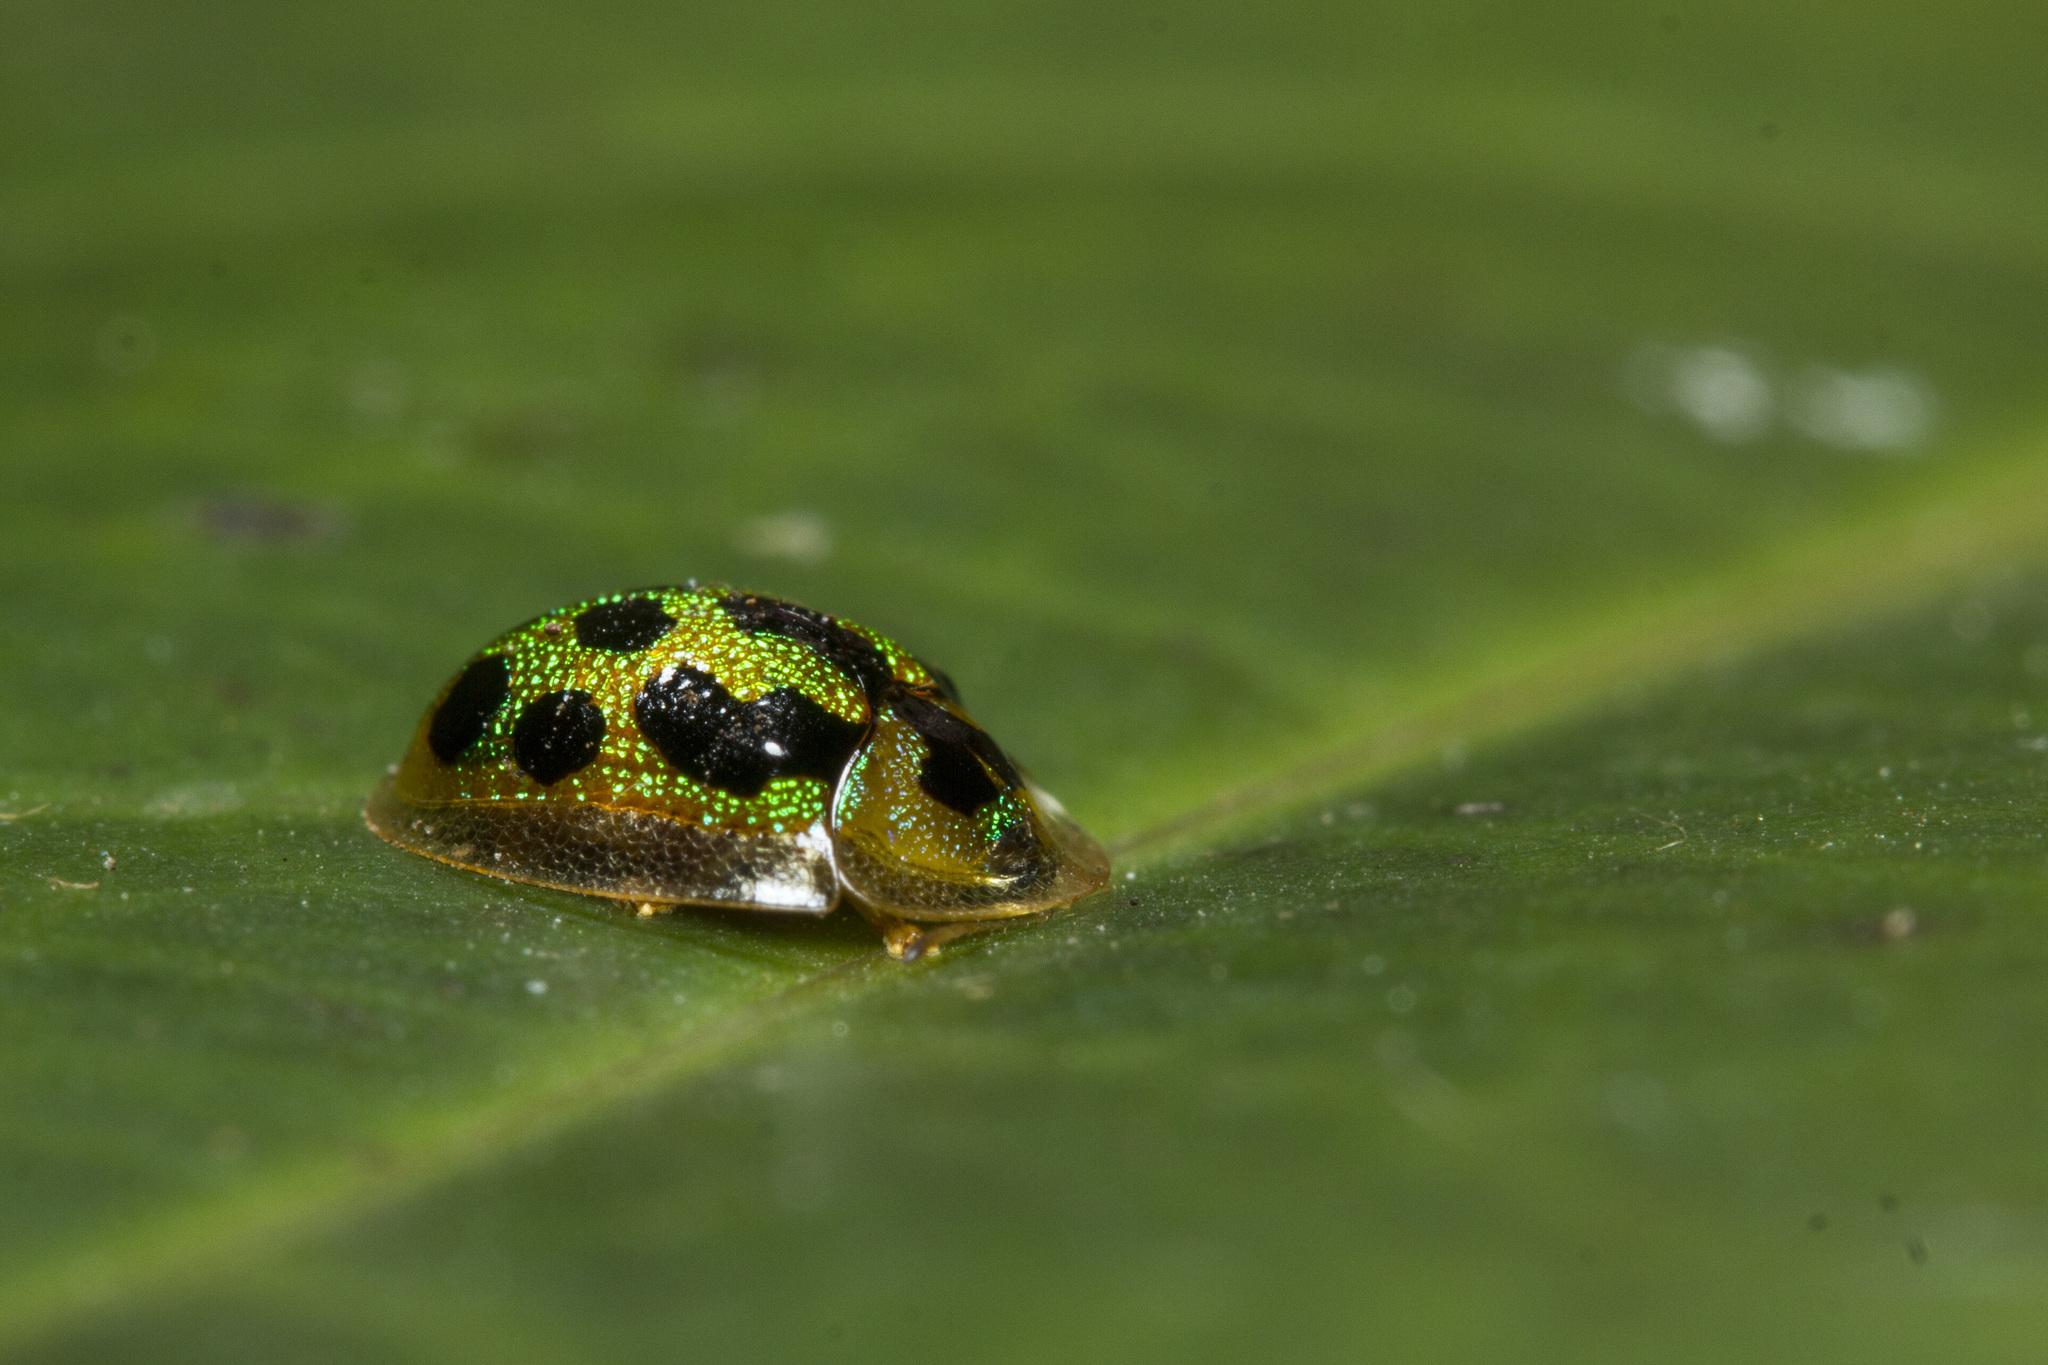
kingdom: Animalia
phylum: Arthropoda
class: Insecta
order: Coleoptera
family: Chrysomelidae
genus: Chiridopsis
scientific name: Chiridopsis undecimnotata
